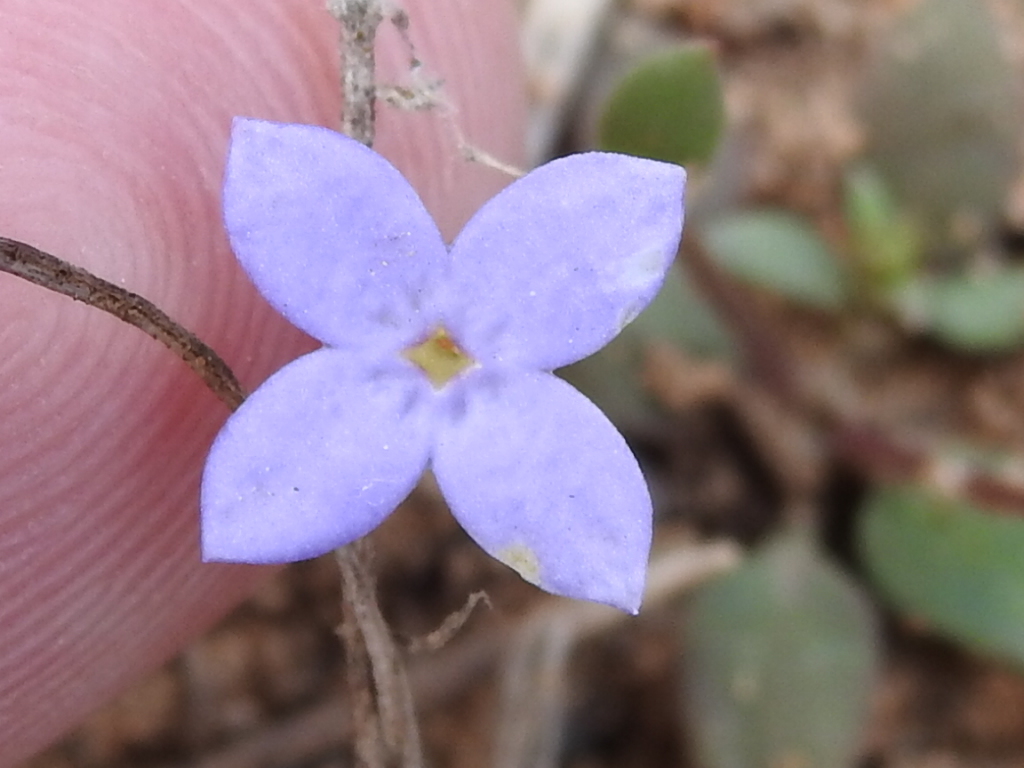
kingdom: Plantae
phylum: Tracheophyta
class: Magnoliopsida
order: Gentianales
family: Rubiaceae
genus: Houstonia
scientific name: Houstonia pusilla
